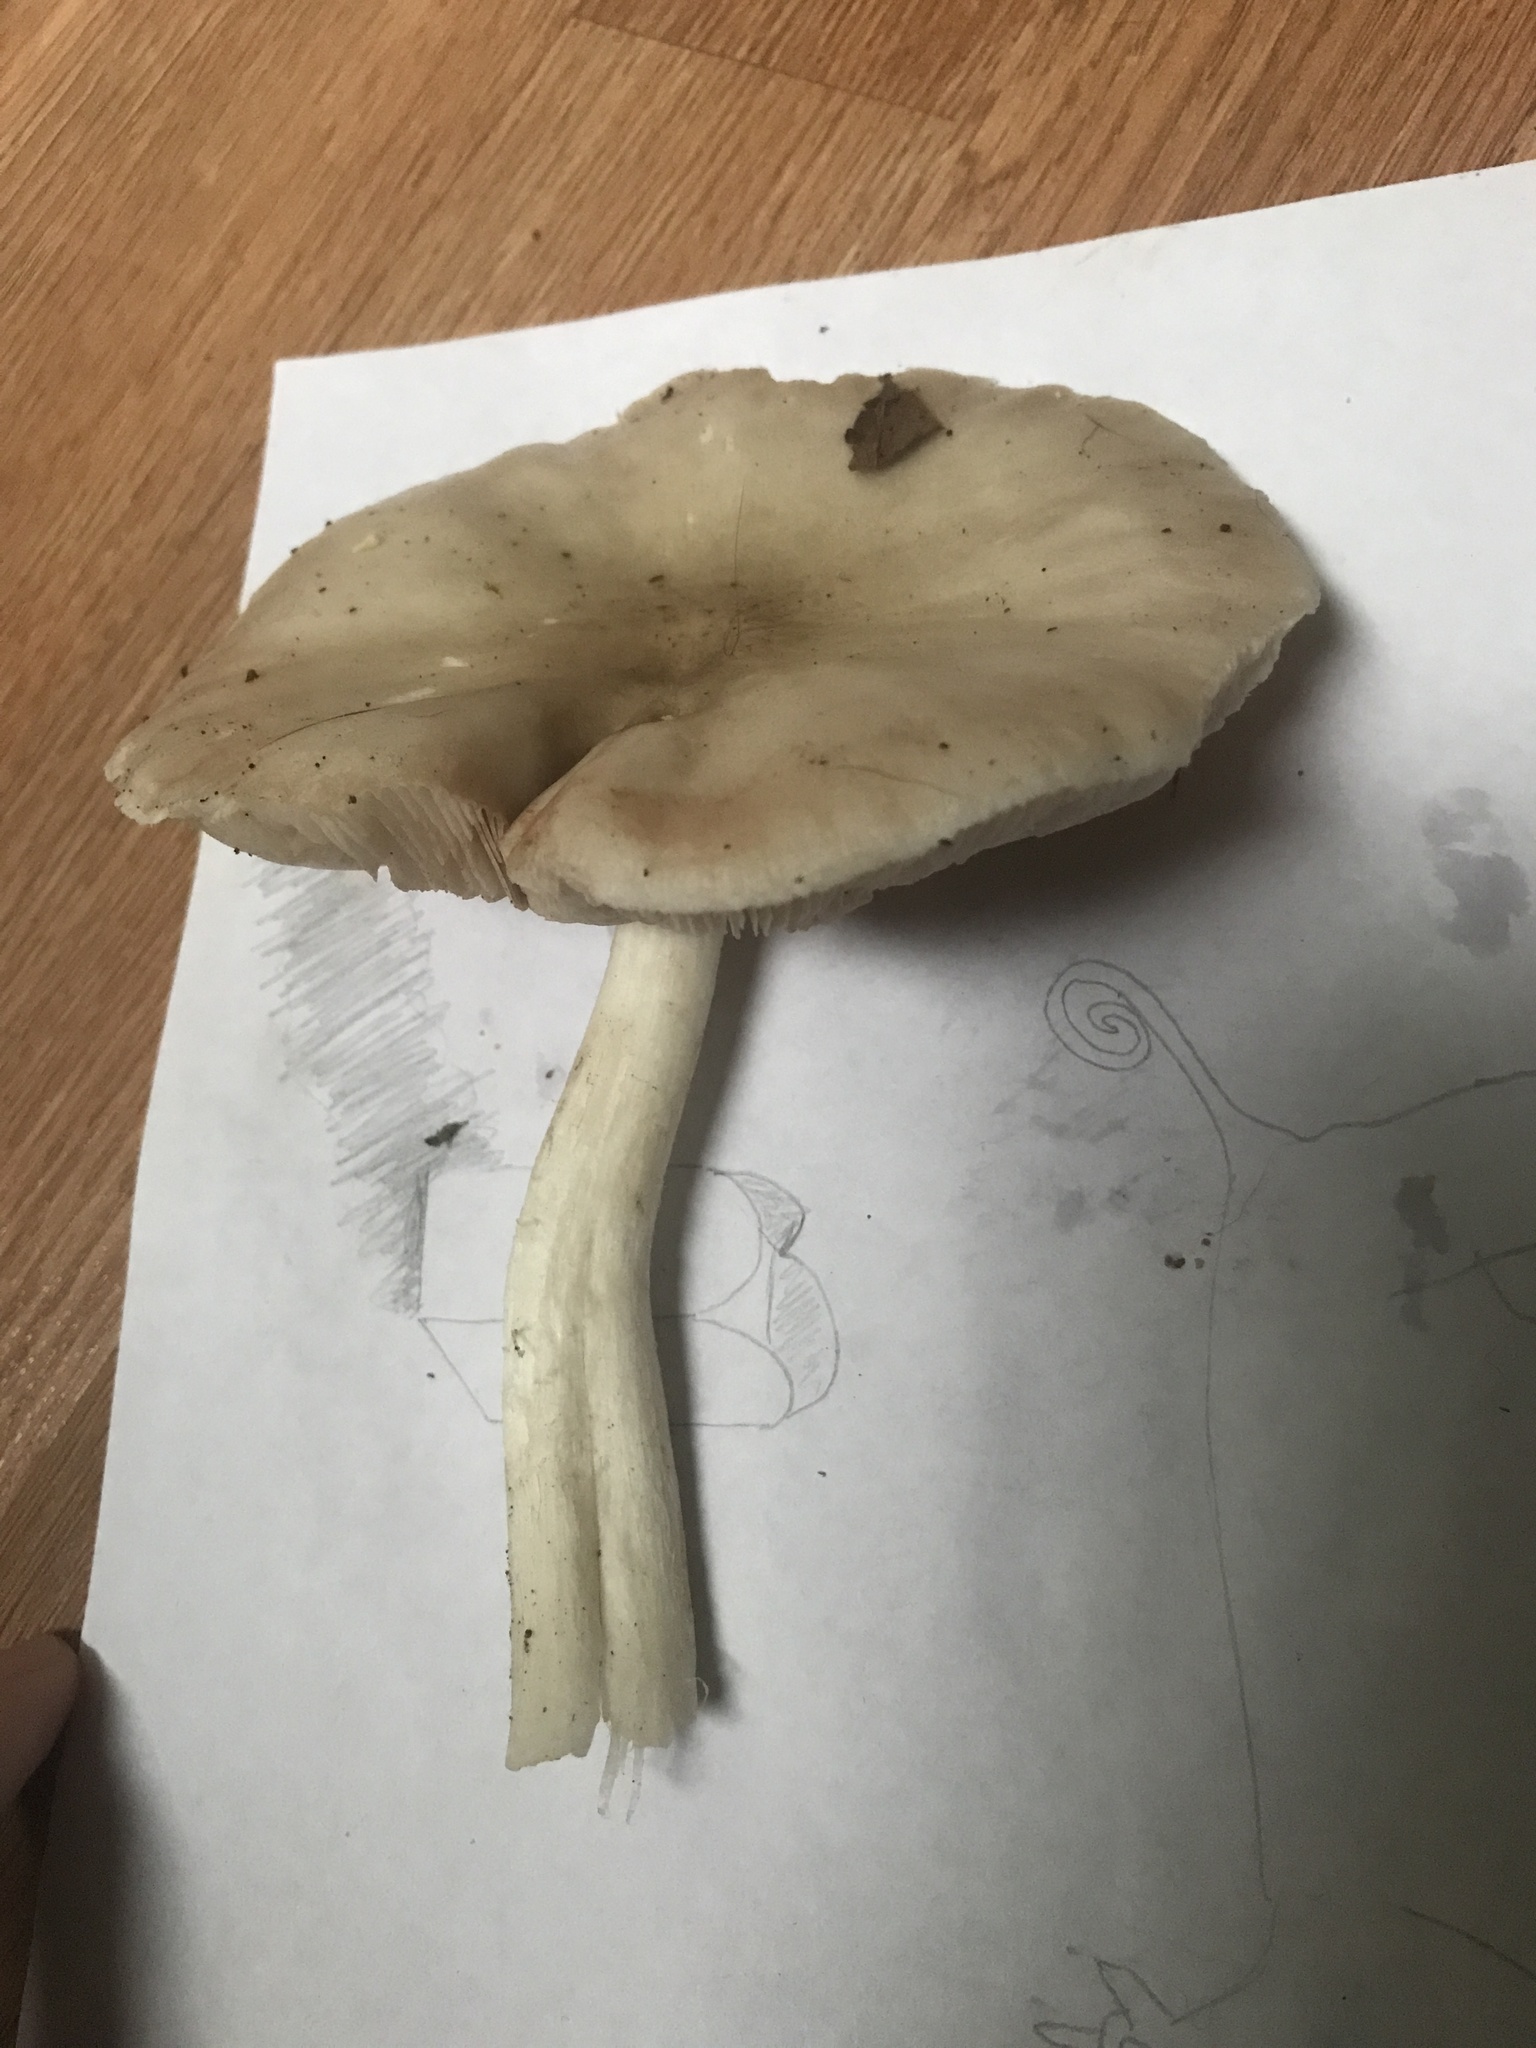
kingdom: Fungi
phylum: Basidiomycota
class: Agaricomycetes
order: Agaricales
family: Pluteaceae
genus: Pluteus
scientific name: Pluteus cervinus
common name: Deer shield
